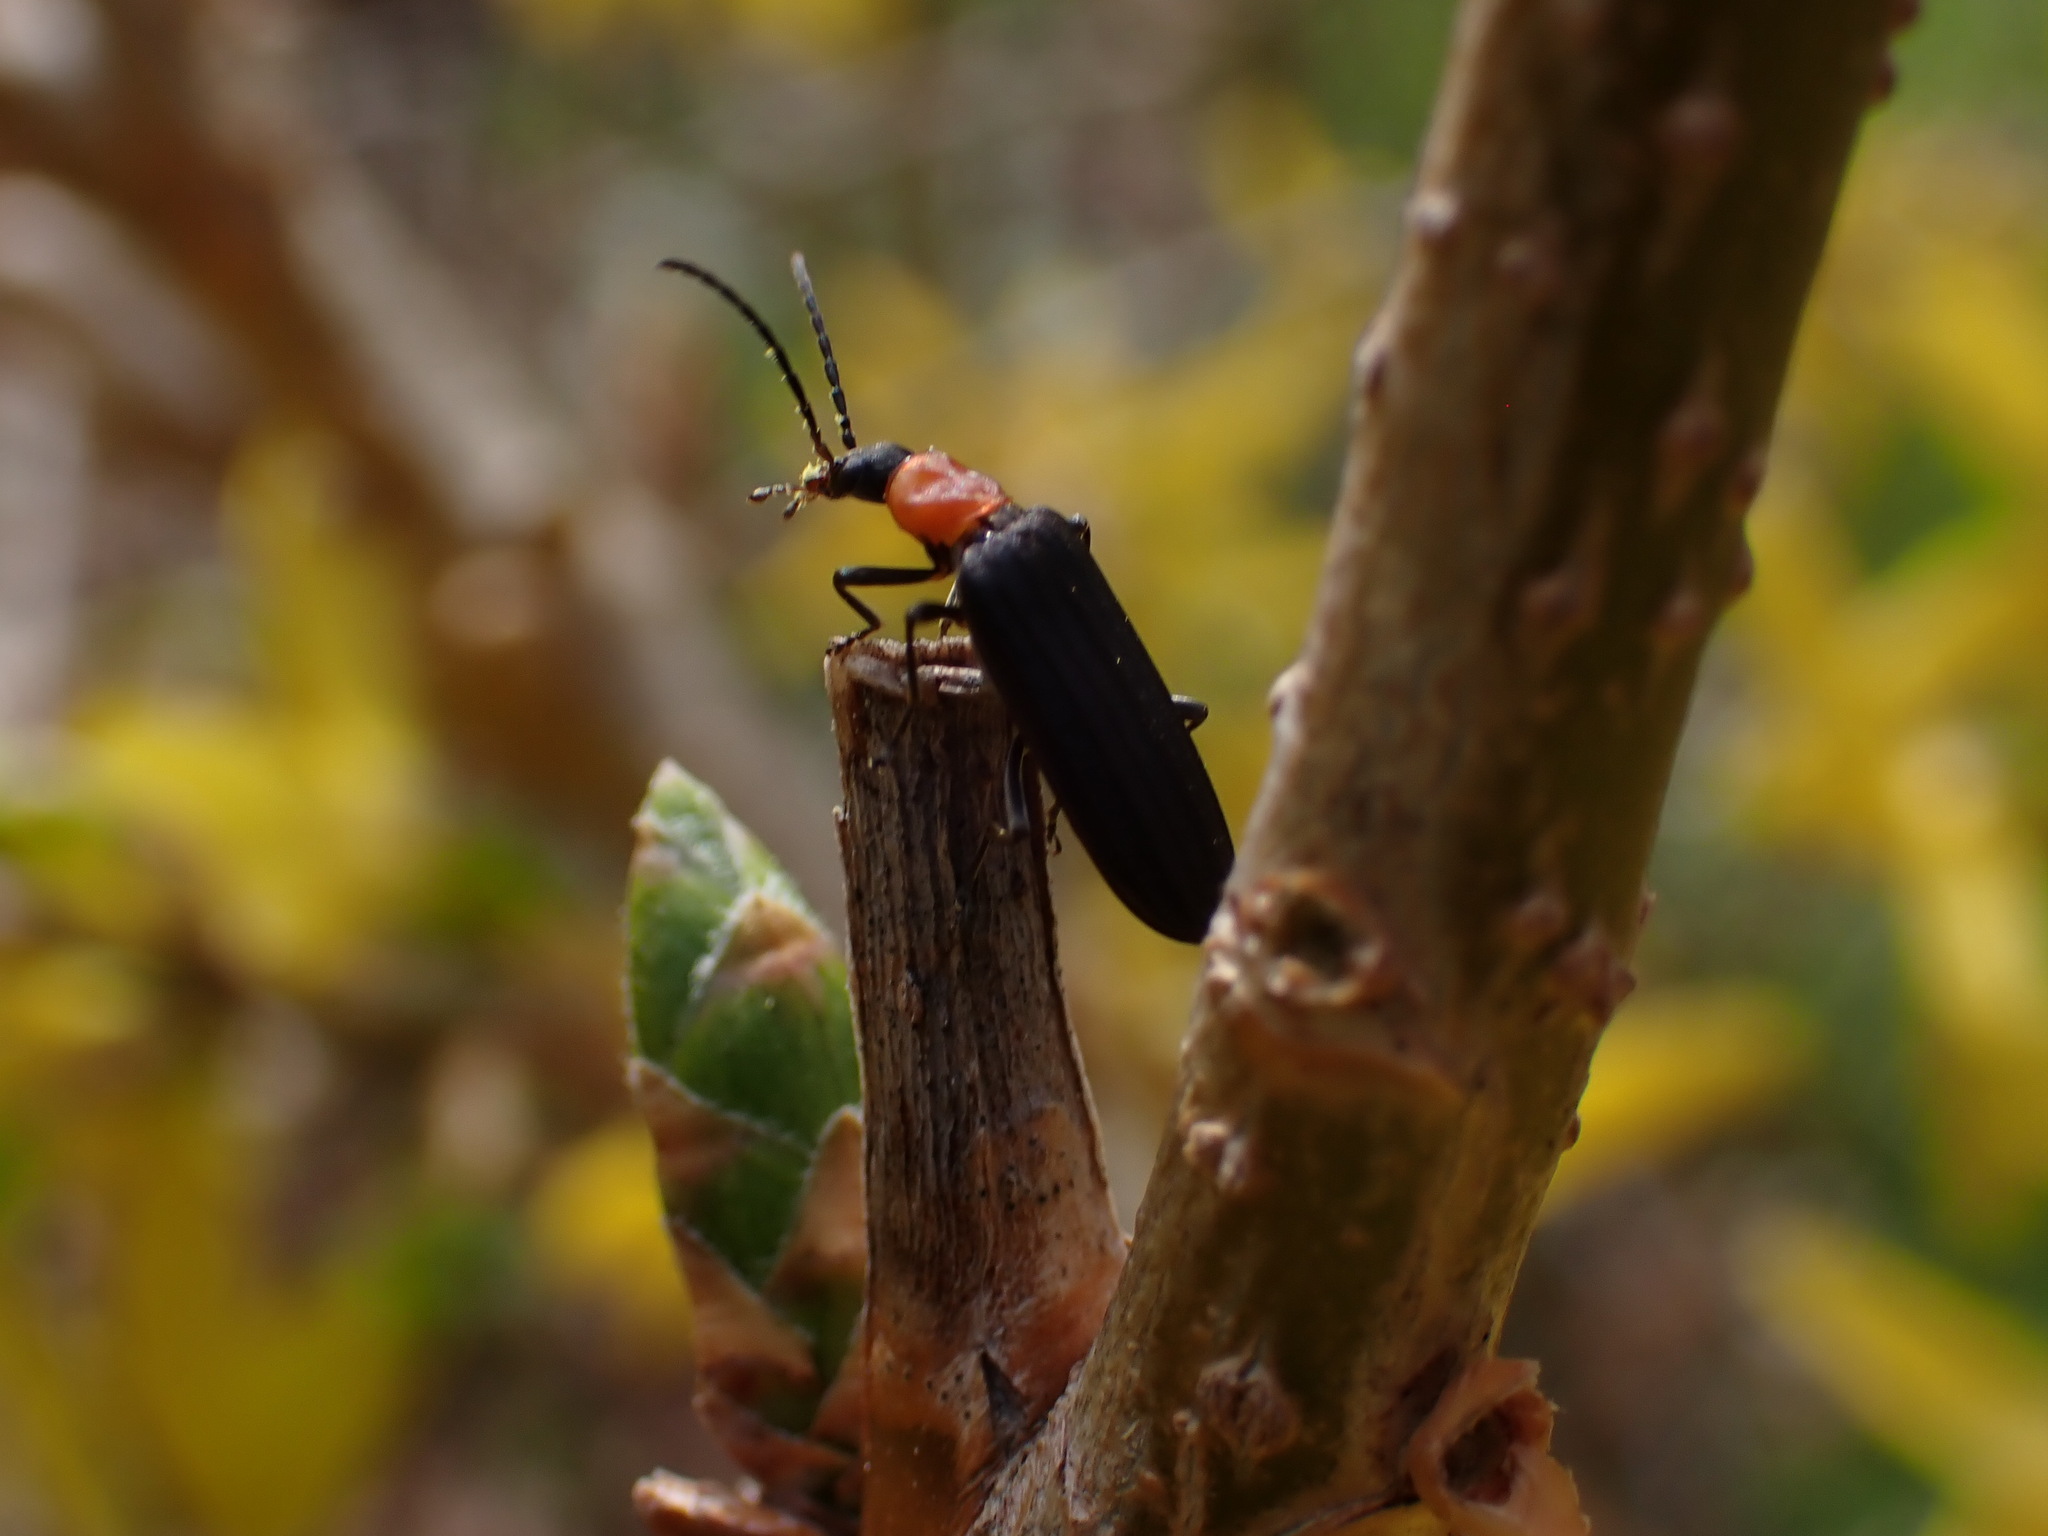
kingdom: Animalia
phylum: Arthropoda
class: Insecta
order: Coleoptera
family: Oedemeridae
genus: Ischnomera
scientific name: Ischnomera
